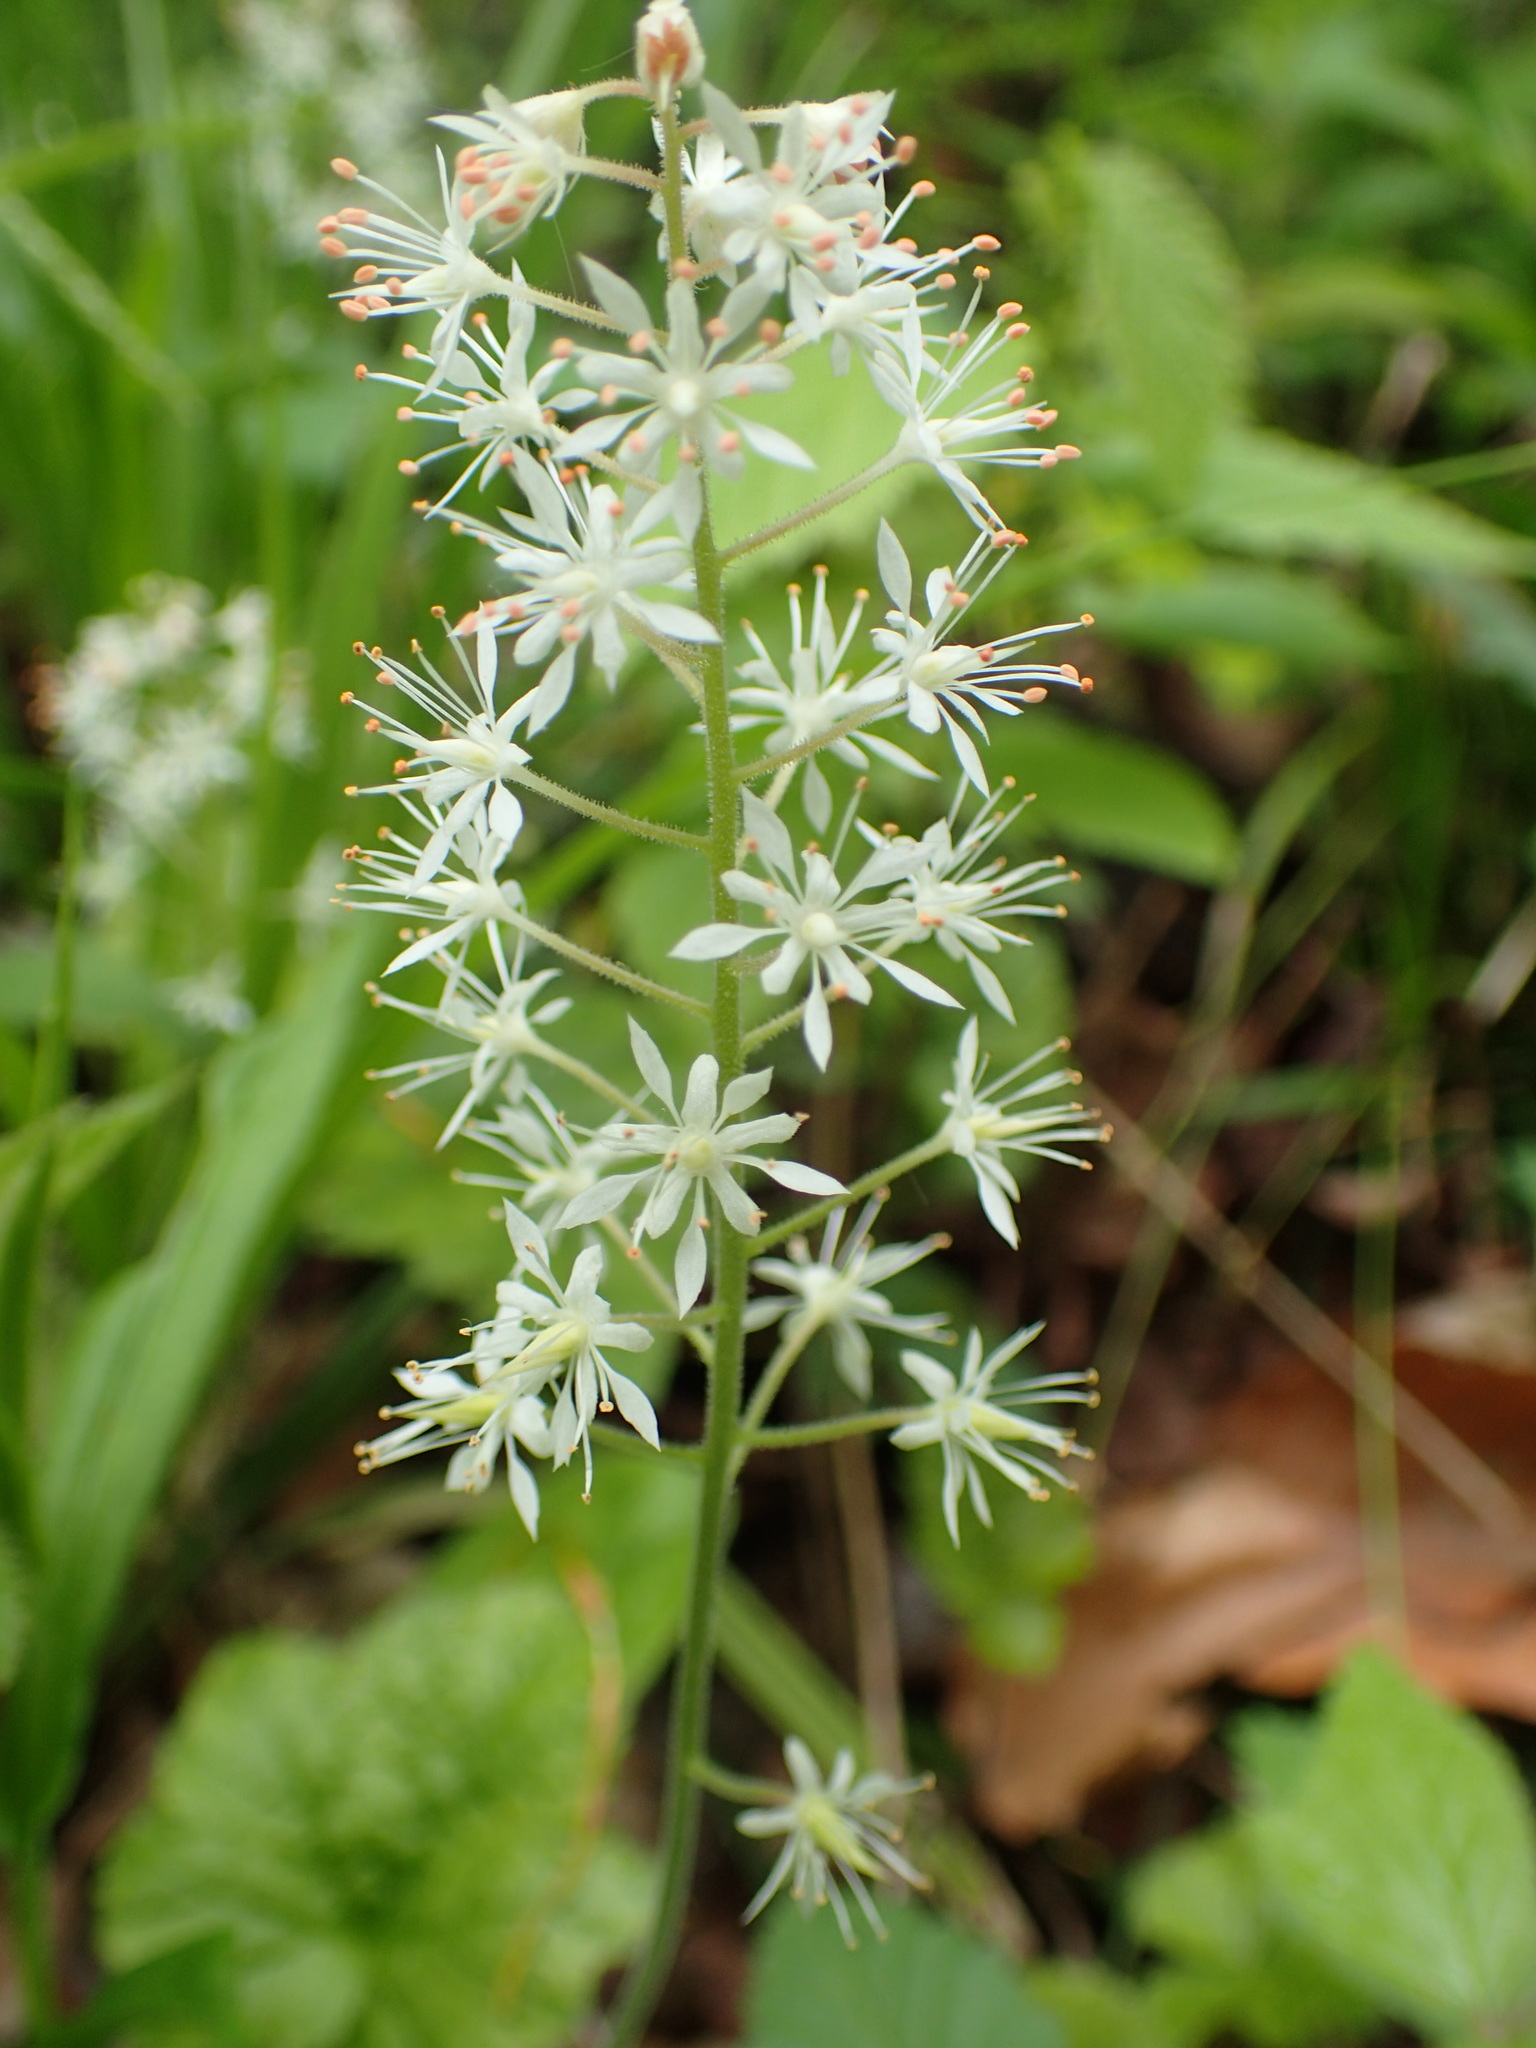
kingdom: Plantae
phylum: Tracheophyta
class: Magnoliopsida
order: Saxifragales
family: Saxifragaceae
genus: Tiarella
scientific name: Tiarella stolonifera
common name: Stoloniferous foamflower
